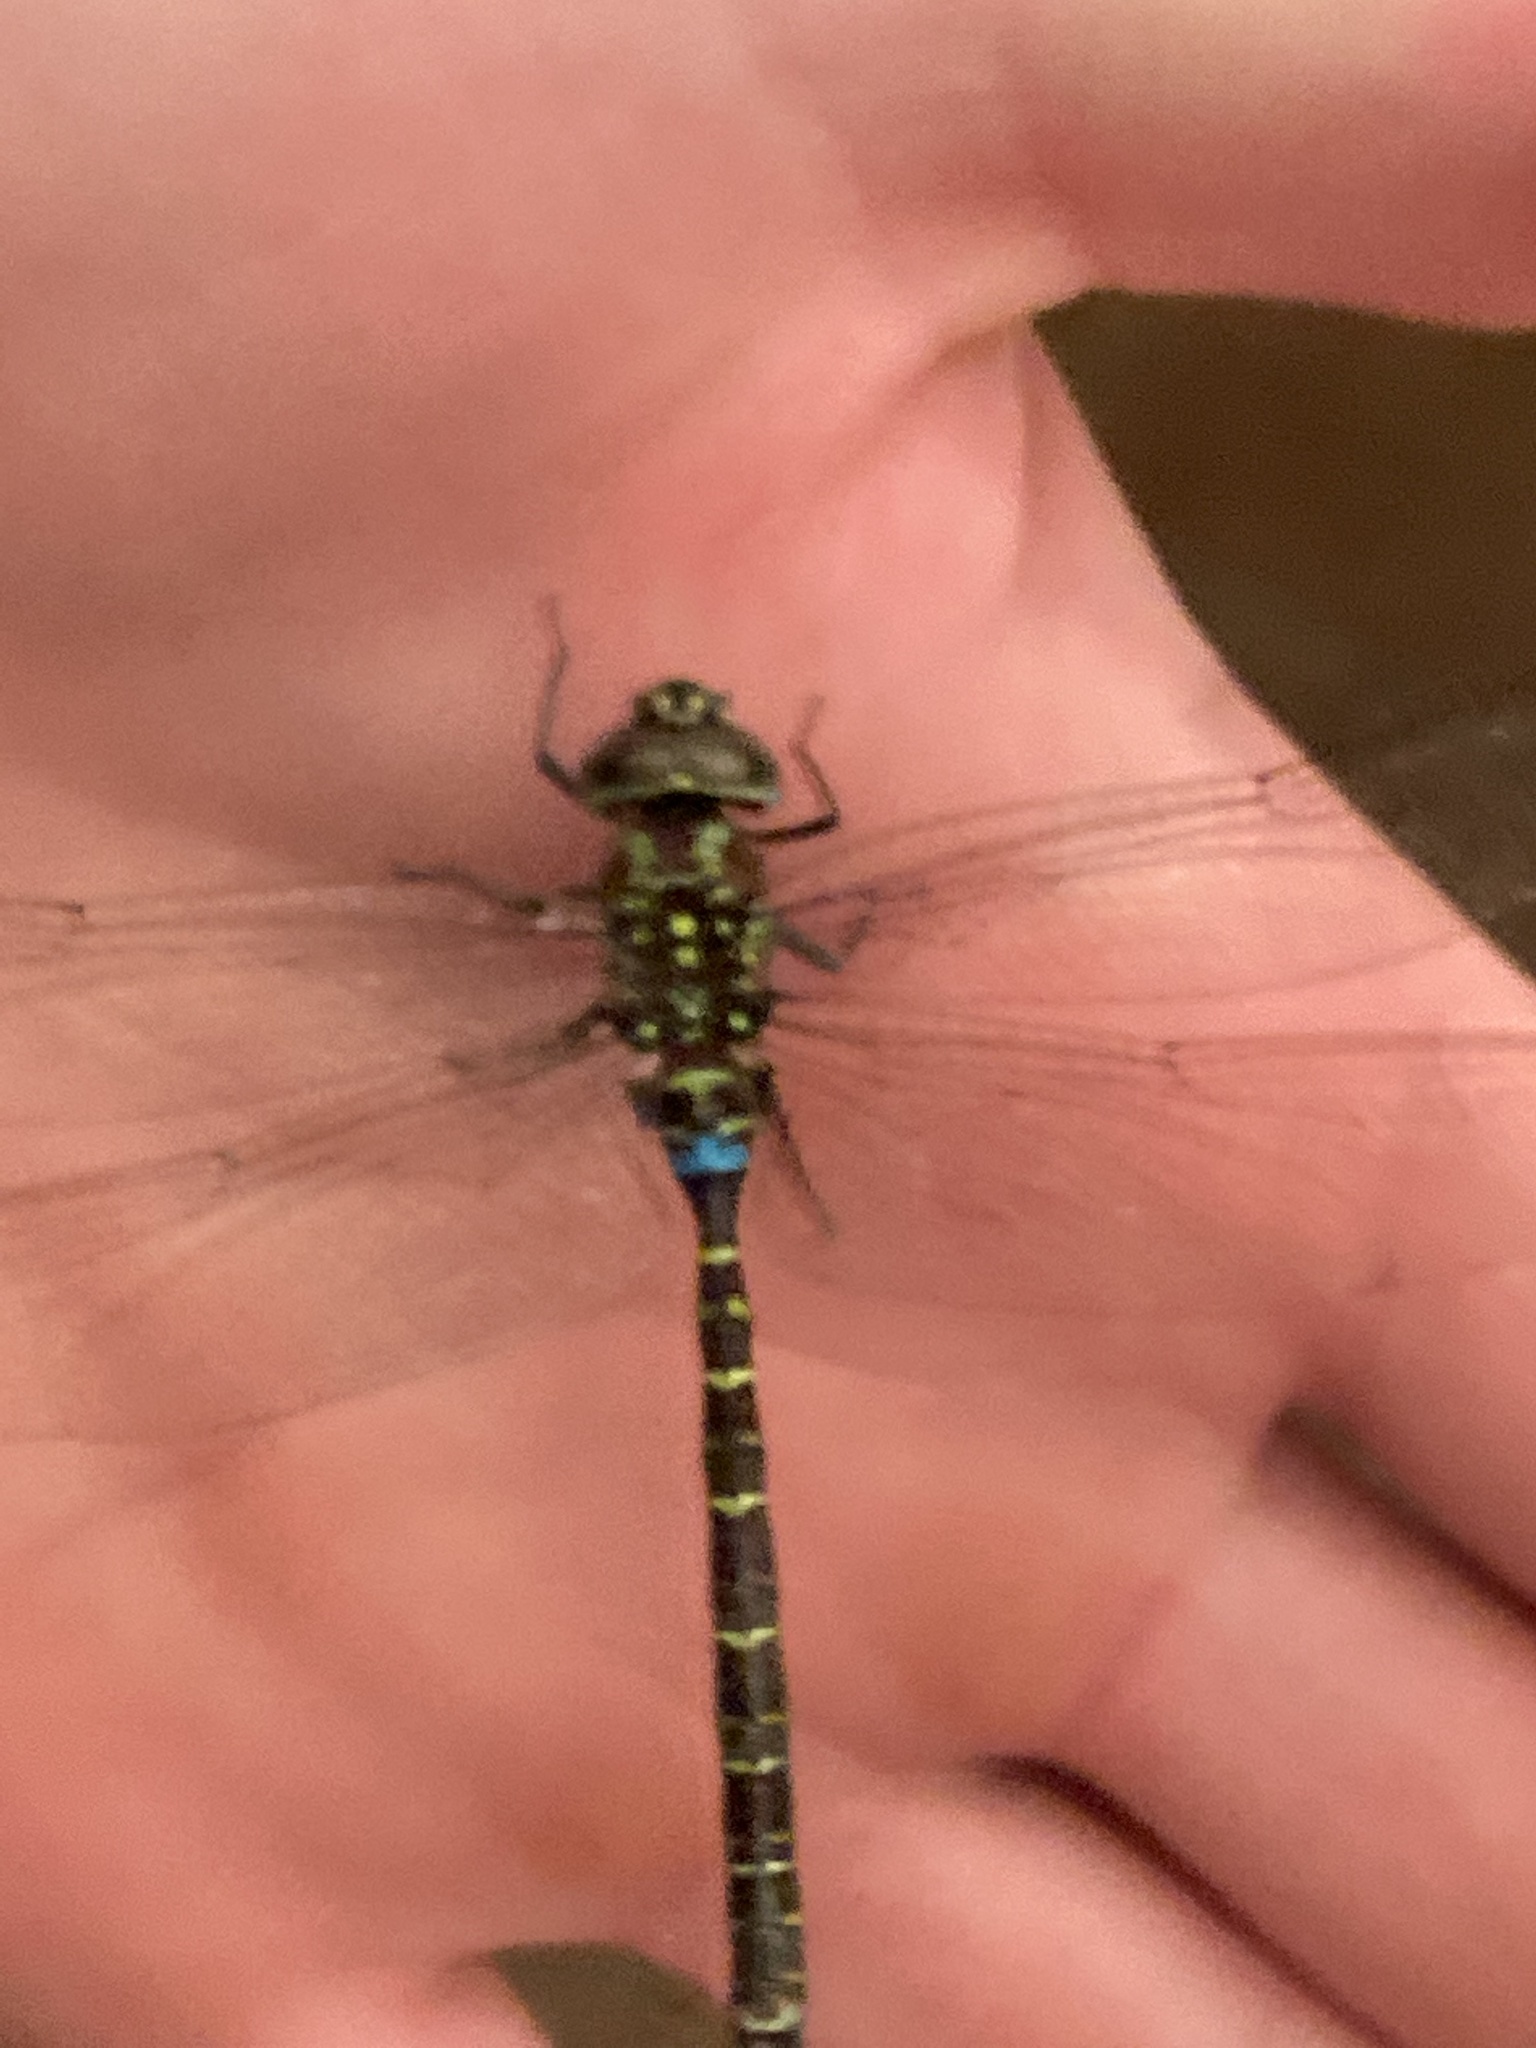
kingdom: Animalia
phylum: Arthropoda
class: Insecta
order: Odonata
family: Aeshnidae
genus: Rhionaeschna
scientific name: Rhionaeschna psilus
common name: Turquoise-tipped darner
